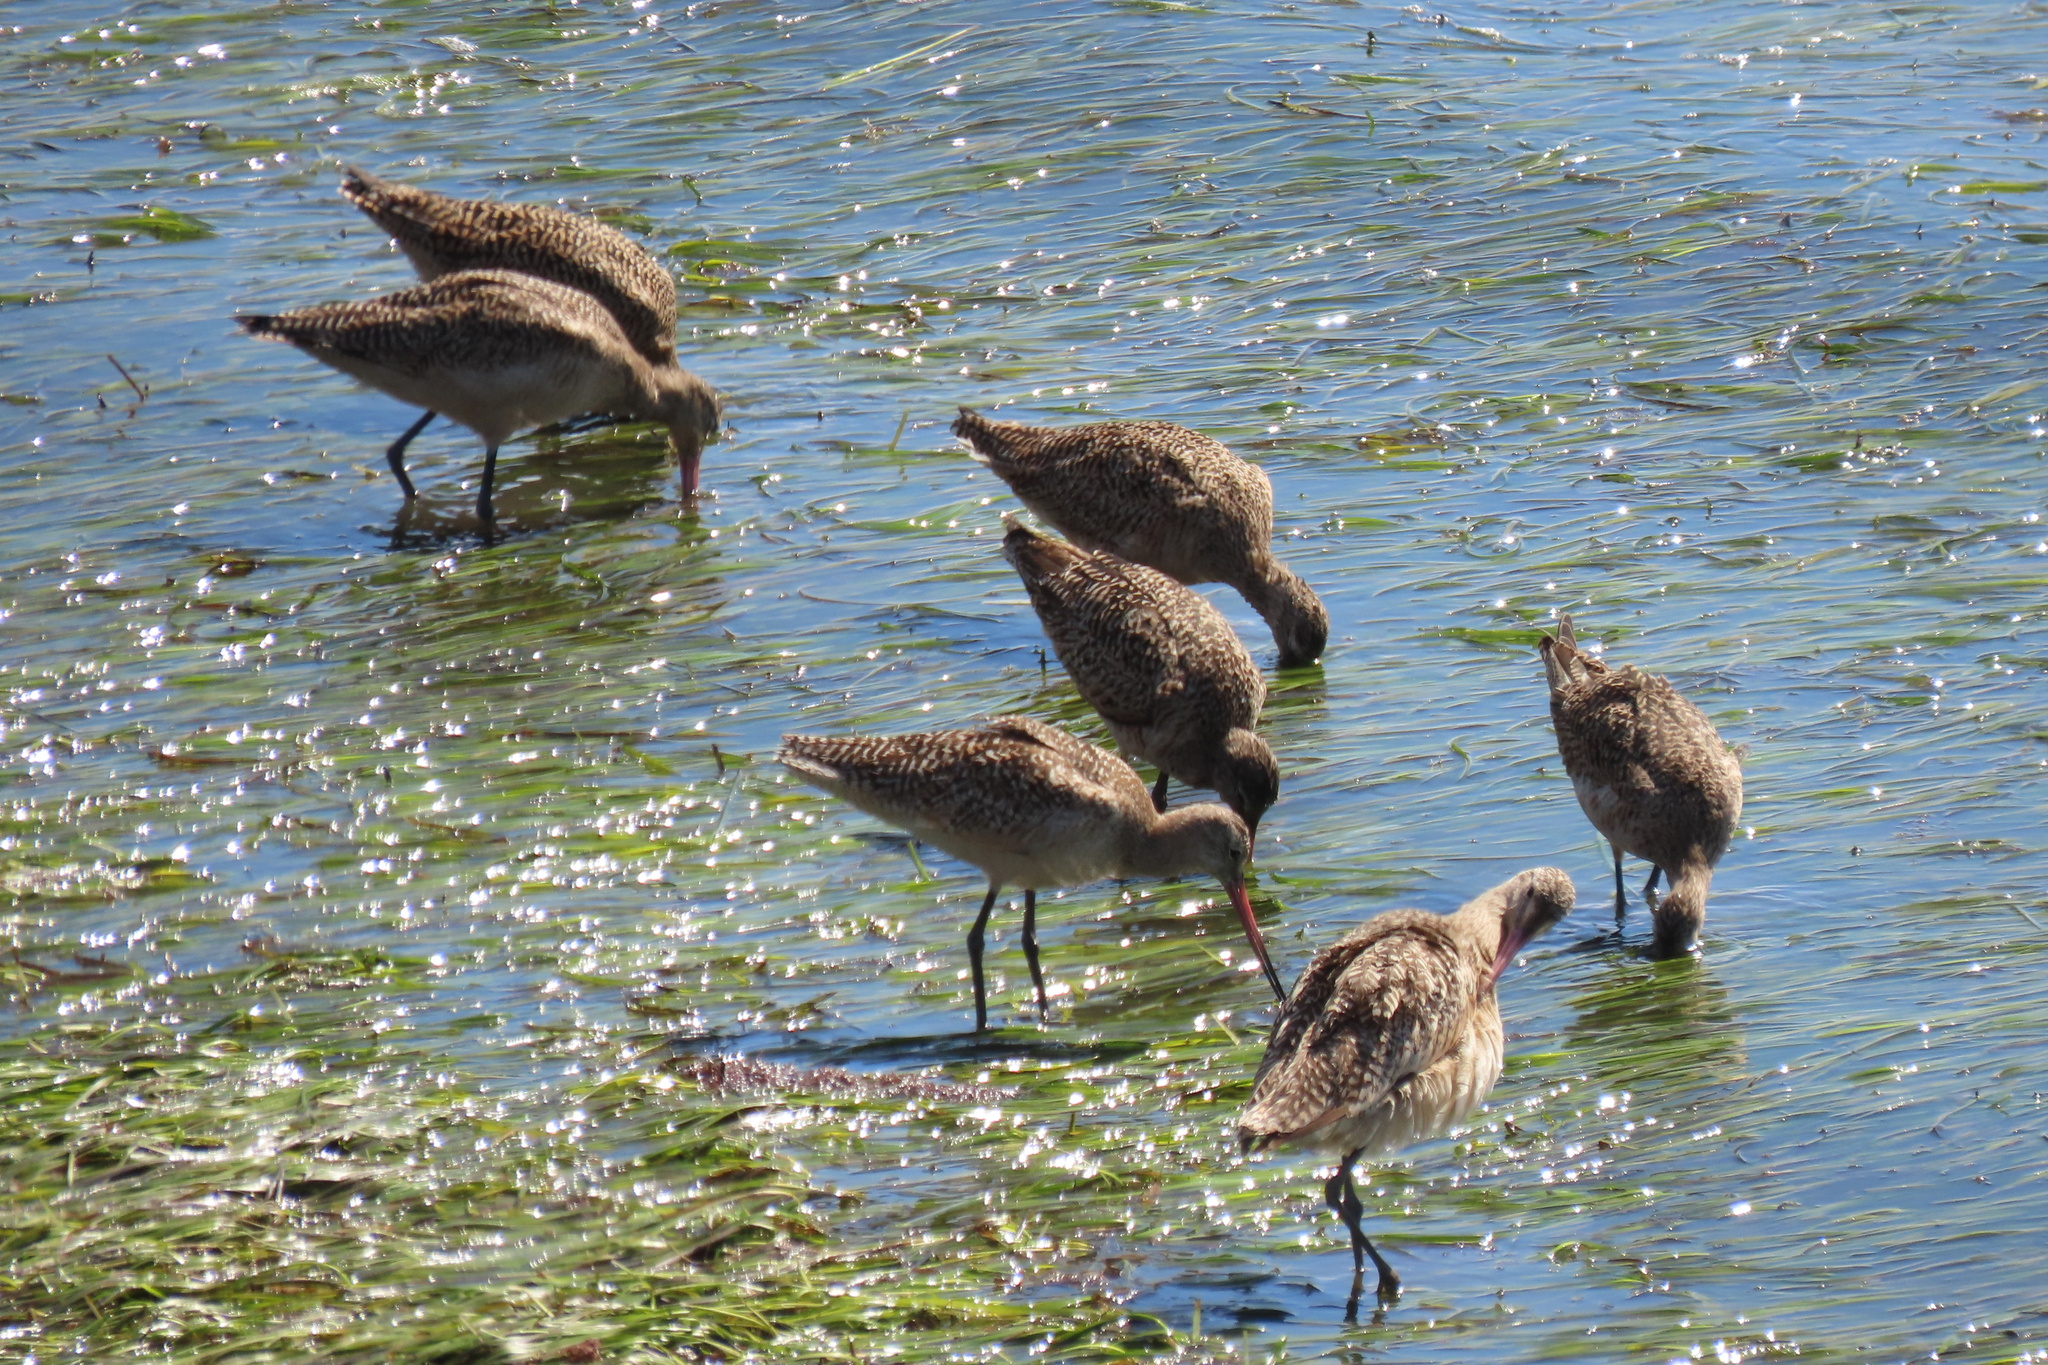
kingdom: Animalia
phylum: Chordata
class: Aves
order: Charadriiformes
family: Scolopacidae
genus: Limosa
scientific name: Limosa fedoa
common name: Marbled godwit
